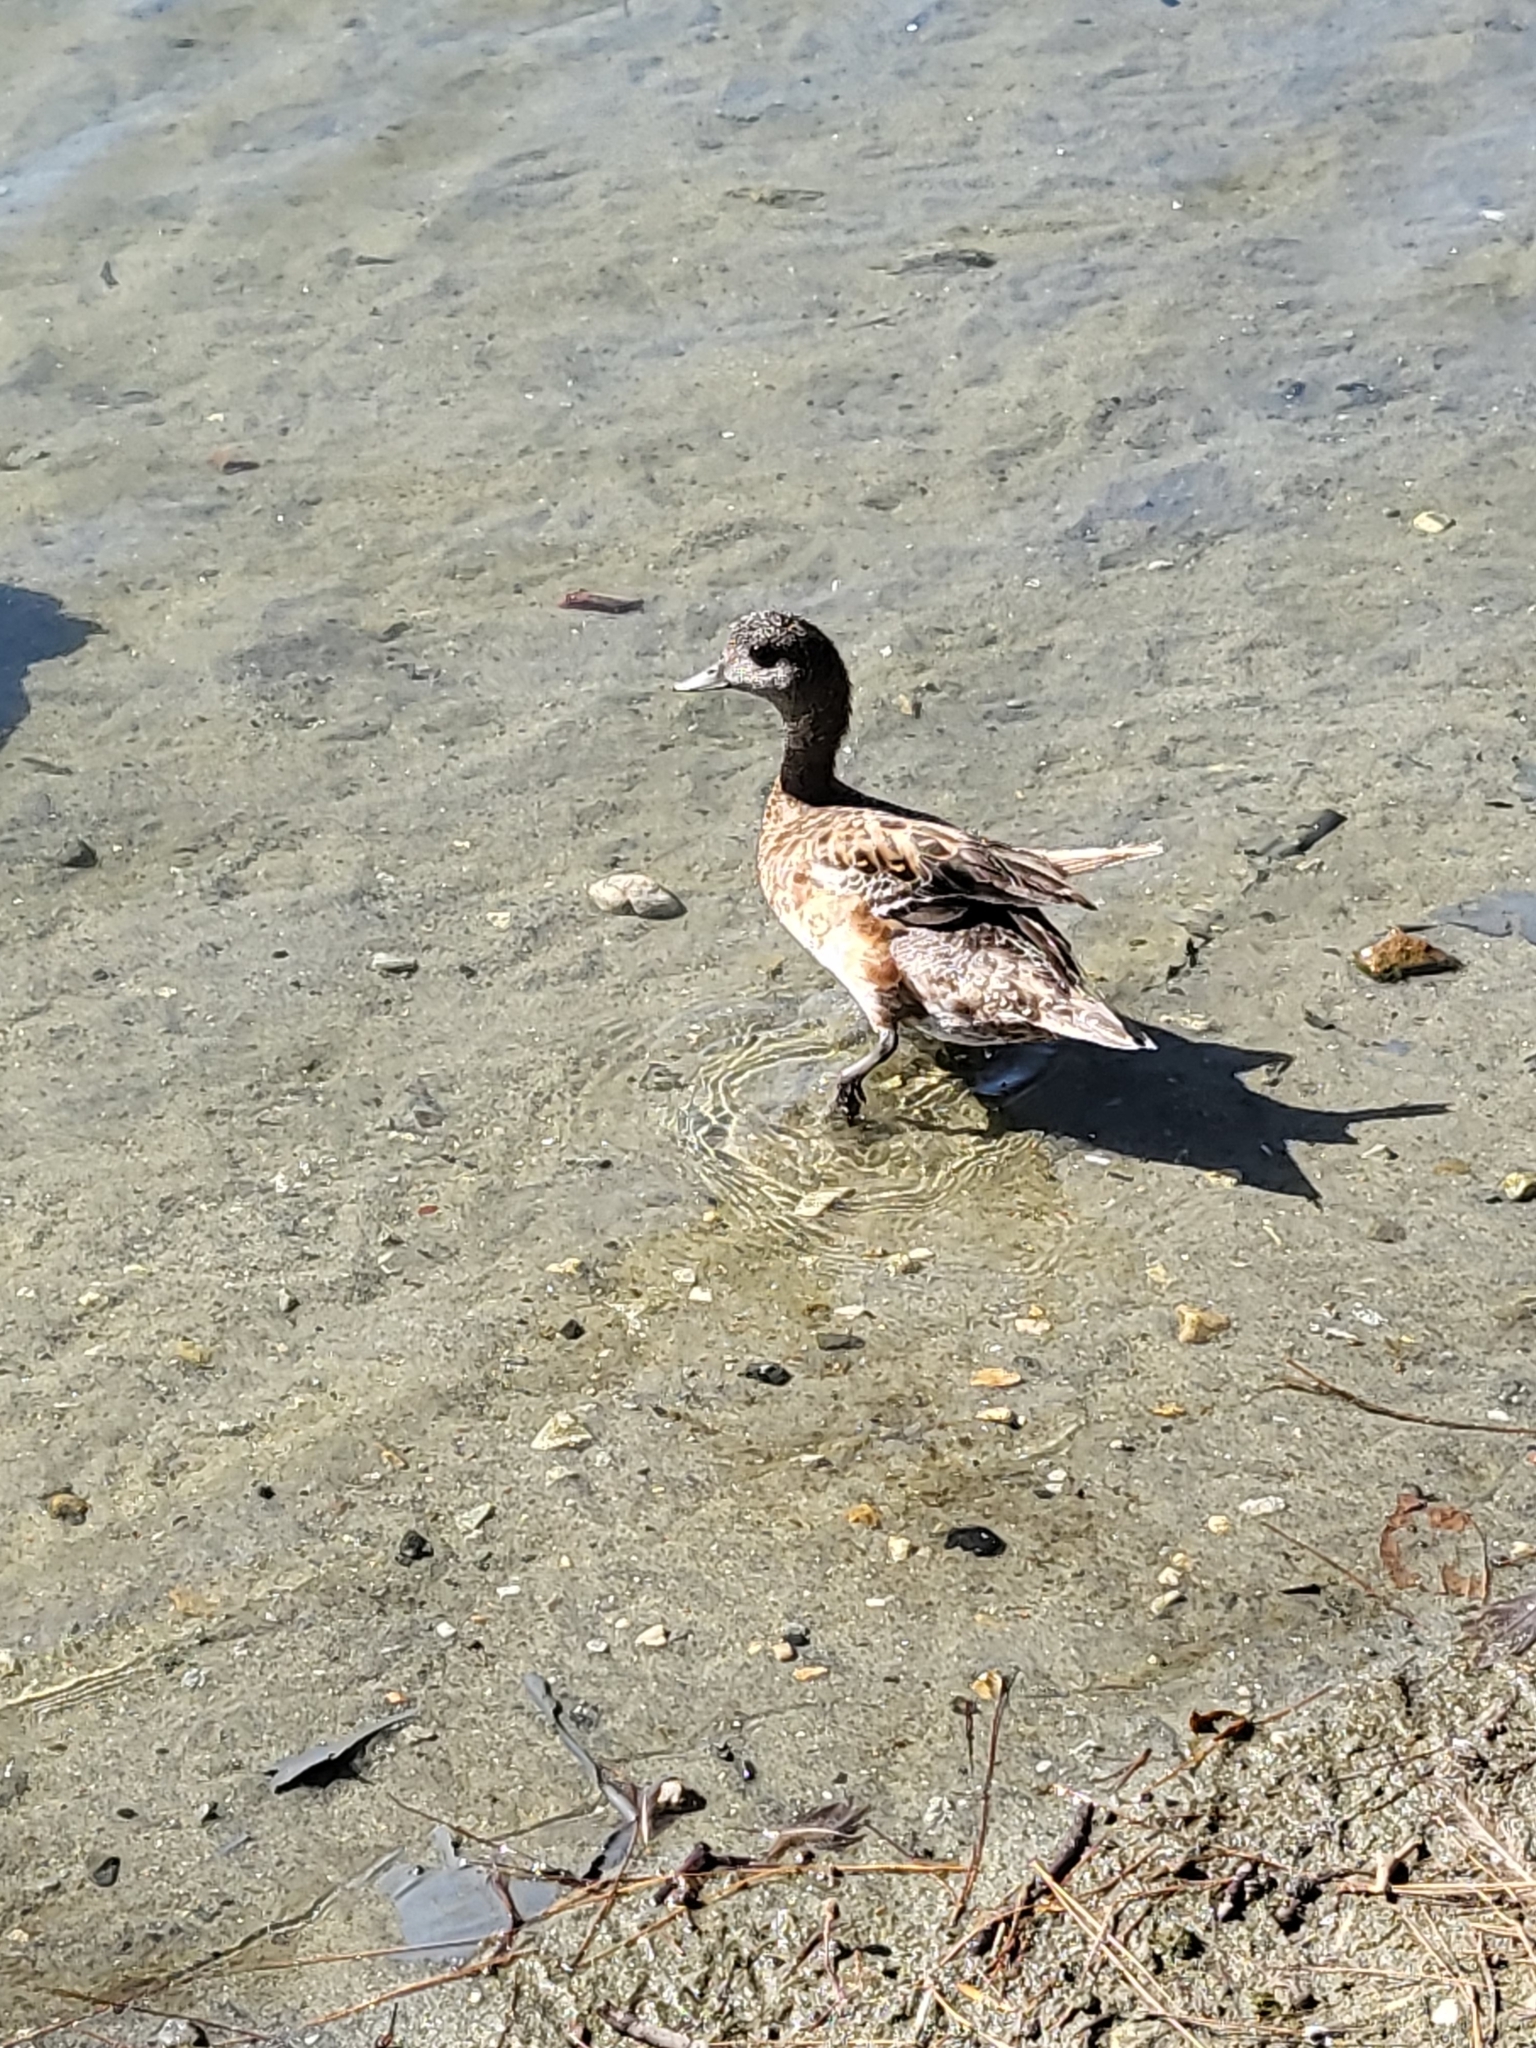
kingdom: Animalia
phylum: Chordata
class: Aves
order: Anseriformes
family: Anatidae
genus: Mareca
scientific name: Mareca americana
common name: American wigeon
